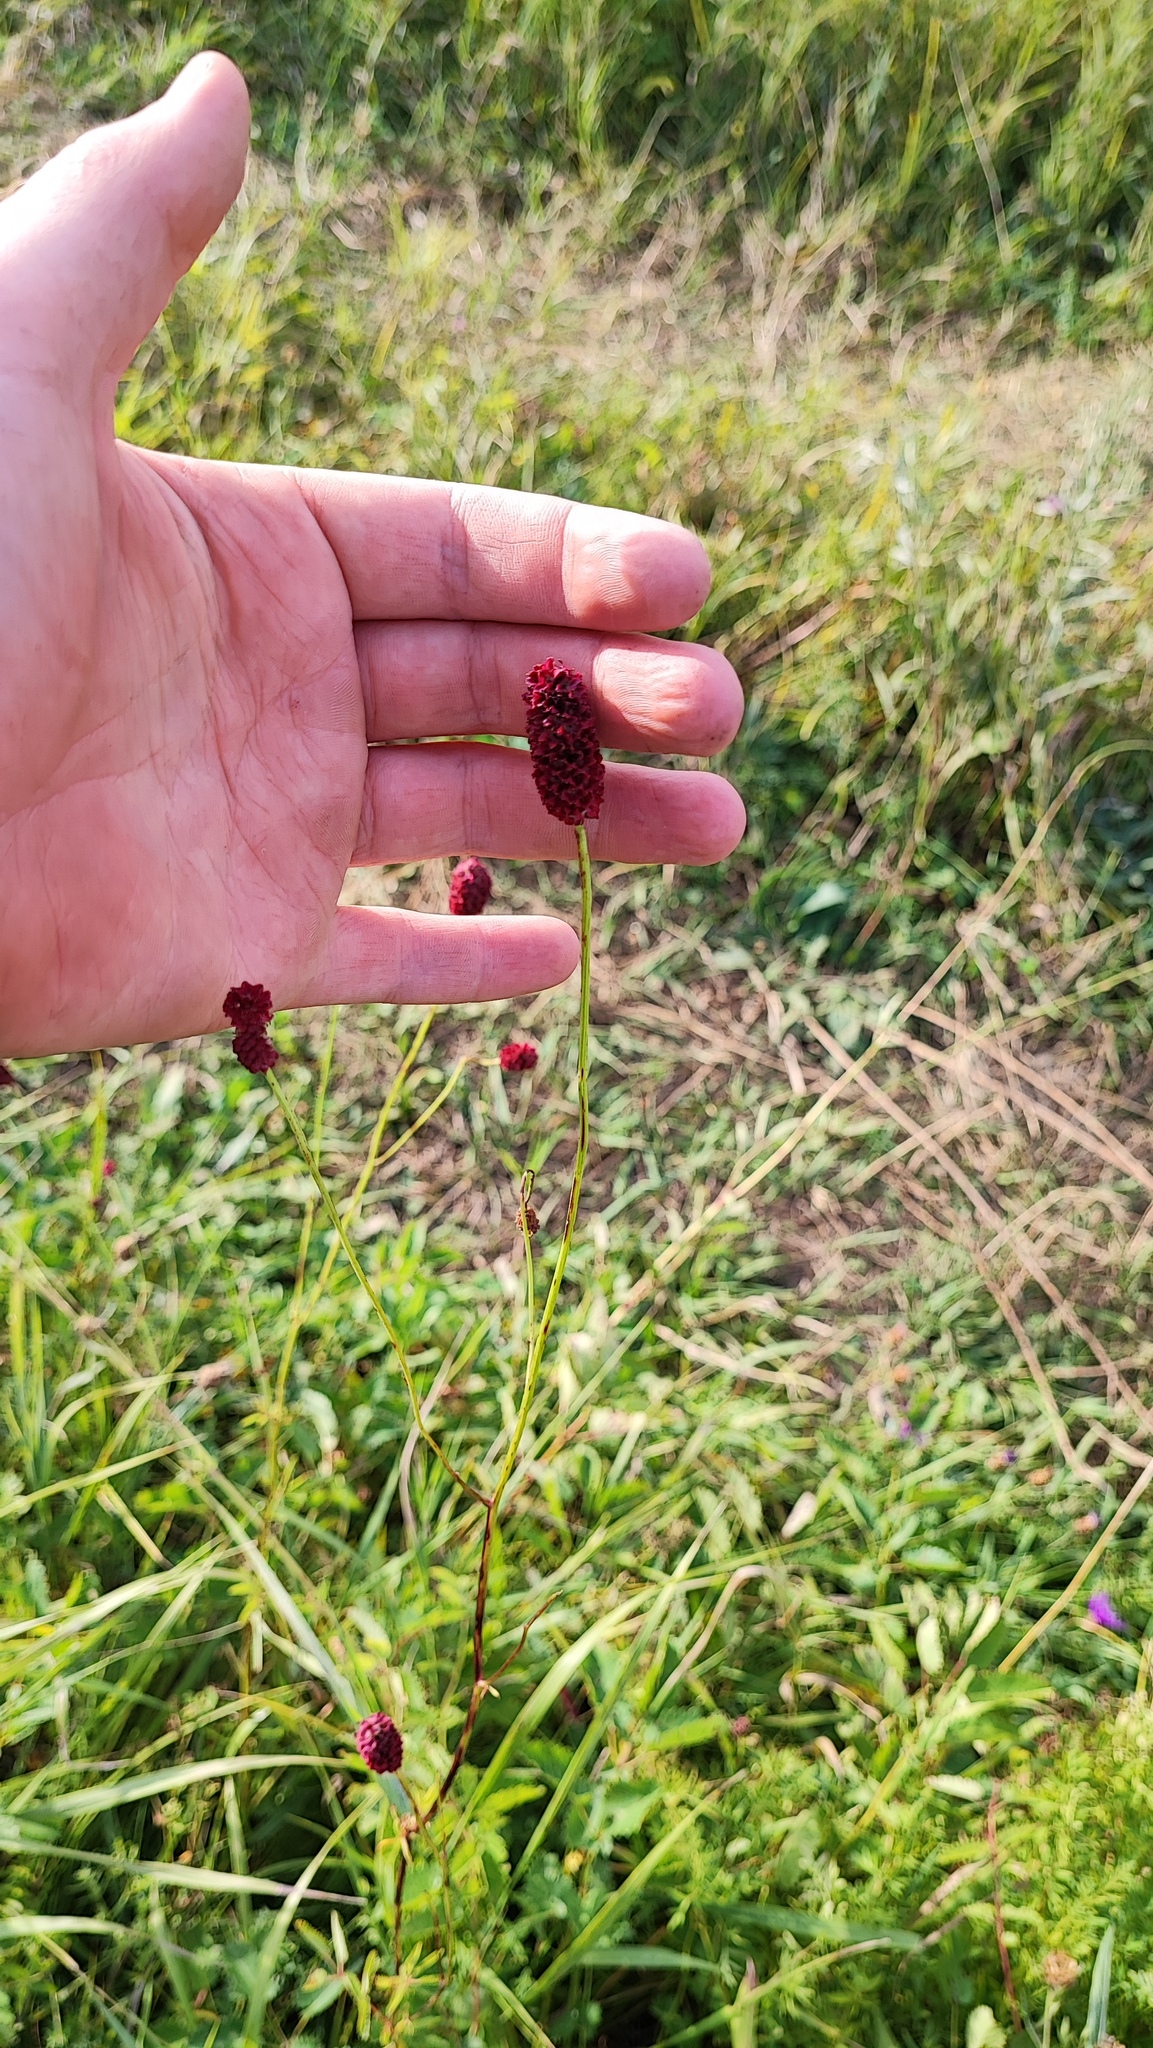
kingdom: Plantae
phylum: Tracheophyta
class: Magnoliopsida
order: Rosales
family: Rosaceae
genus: Sanguisorba
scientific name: Sanguisorba officinalis
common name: Great burnet
